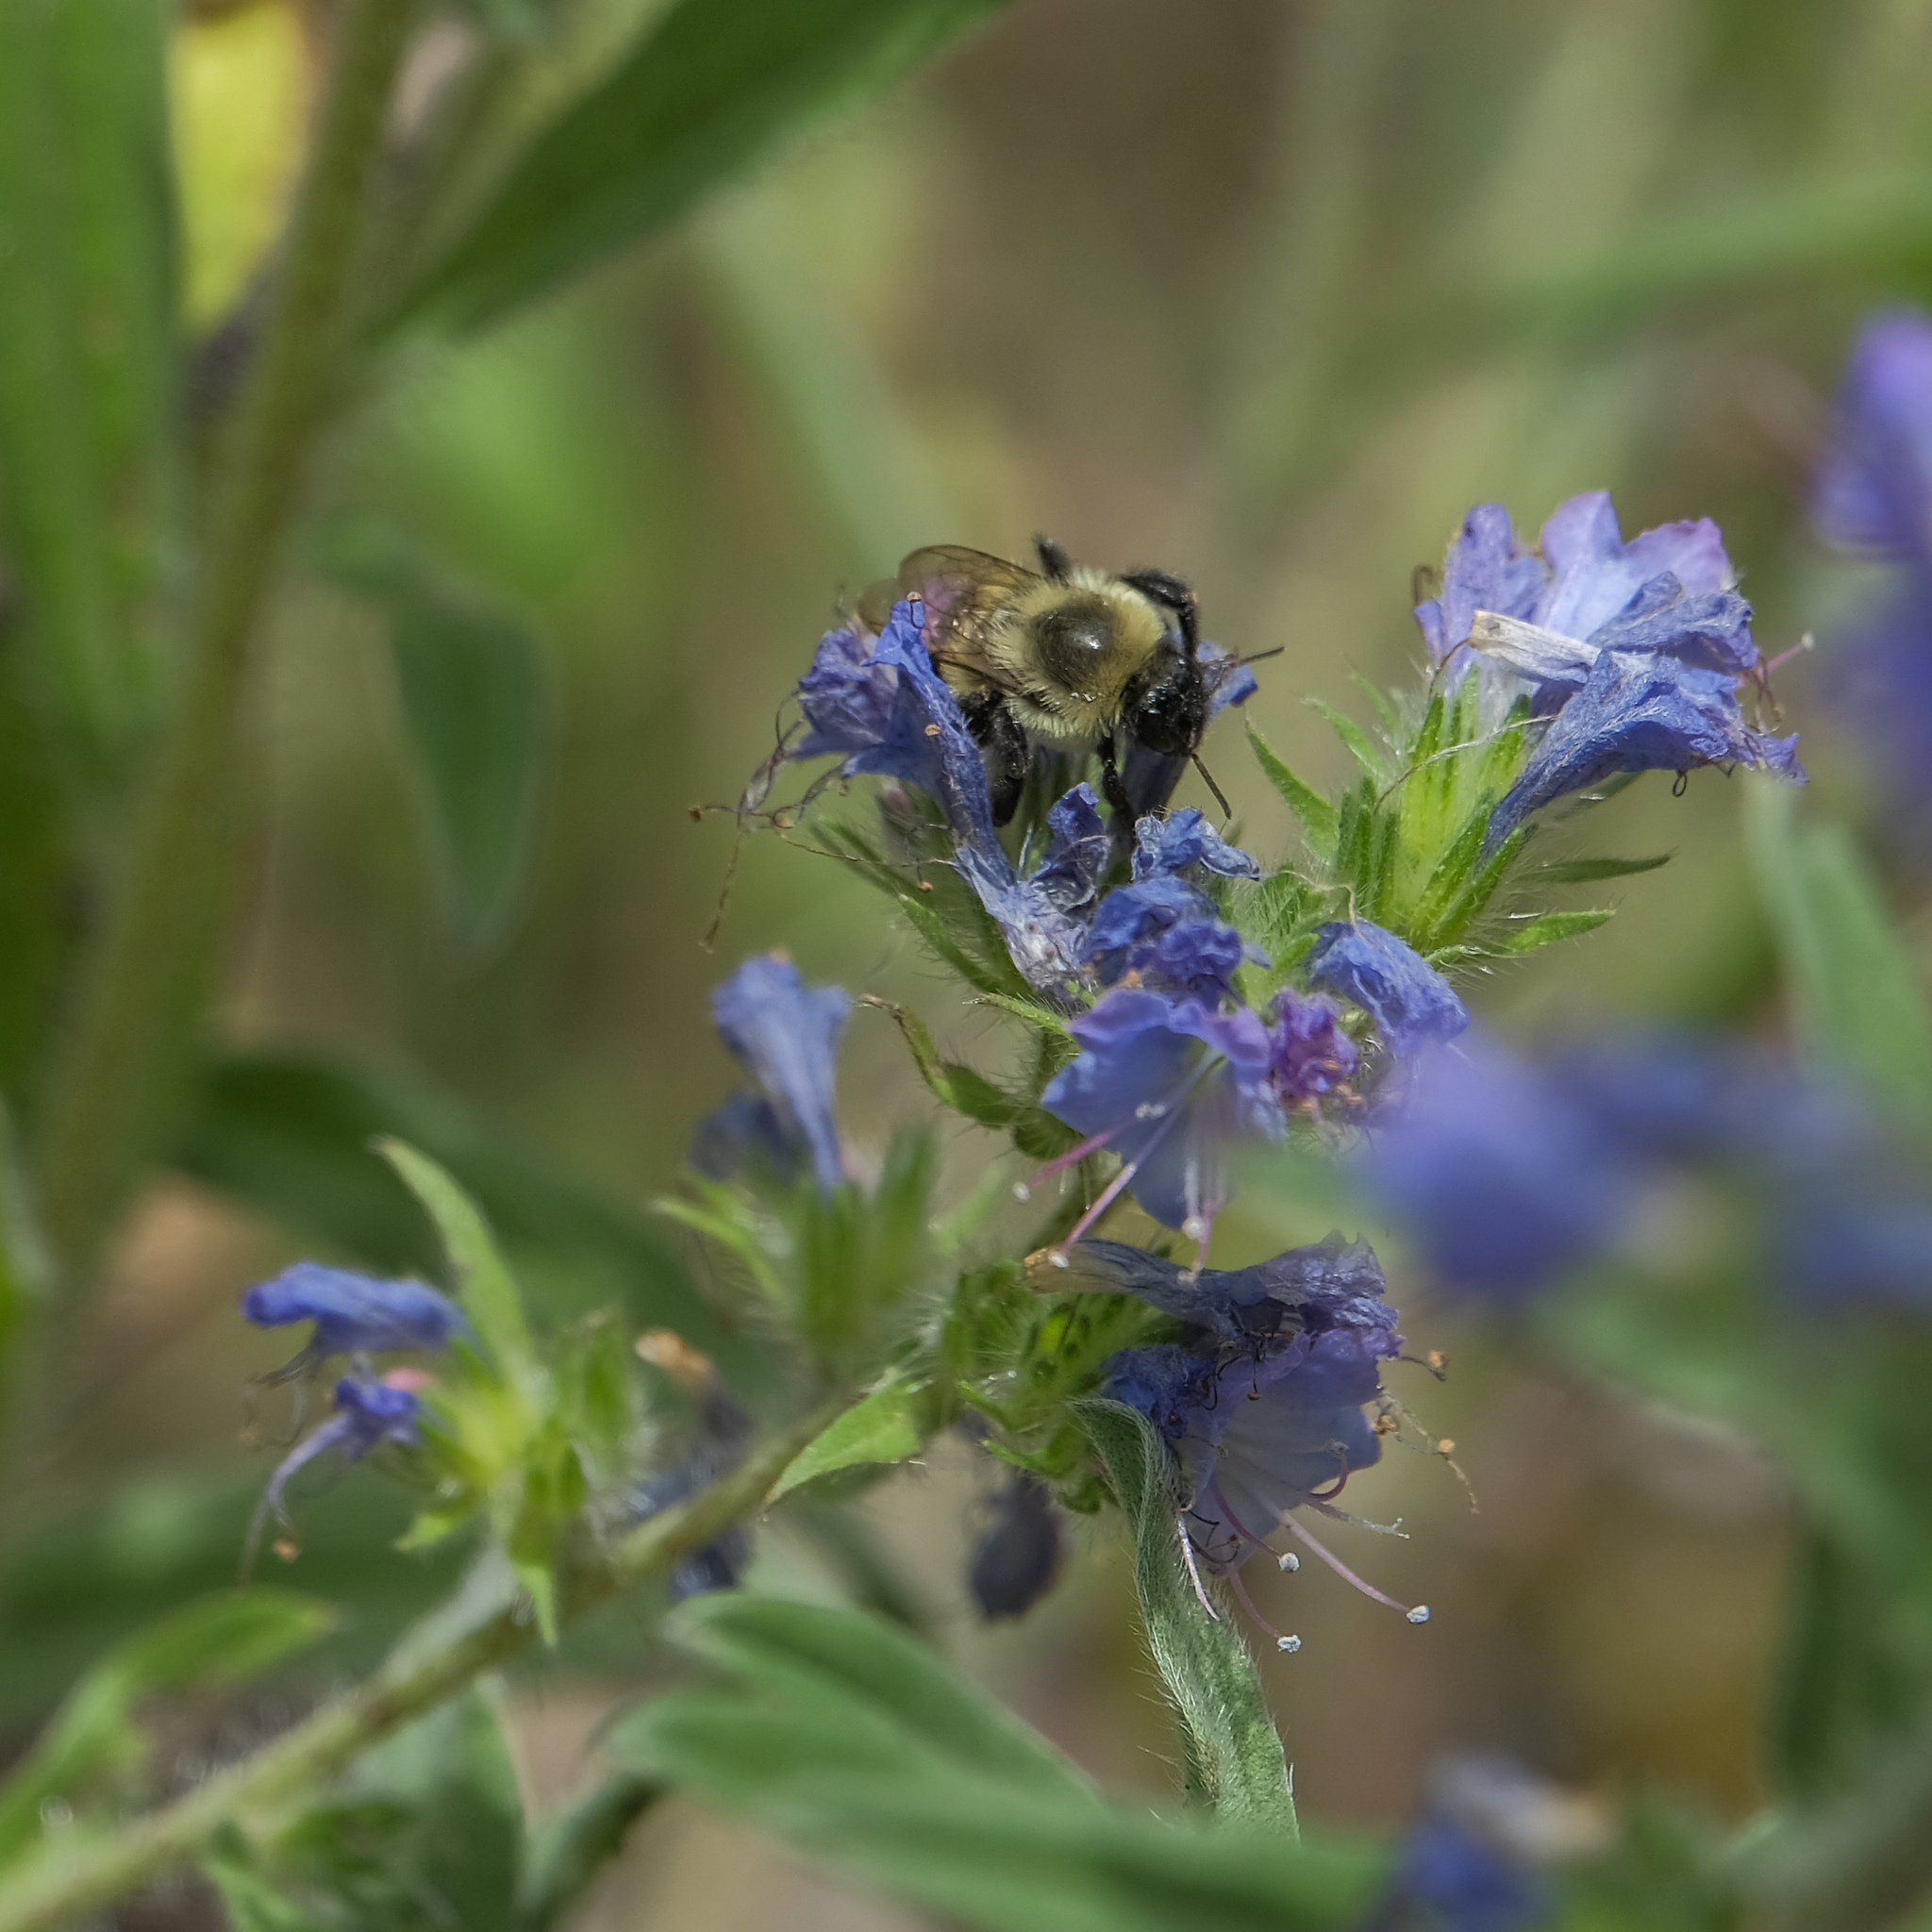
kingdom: Animalia
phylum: Arthropoda
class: Insecta
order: Hymenoptera
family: Apidae
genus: Bombus
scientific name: Bombus impatiens
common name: Common eastern bumble bee
